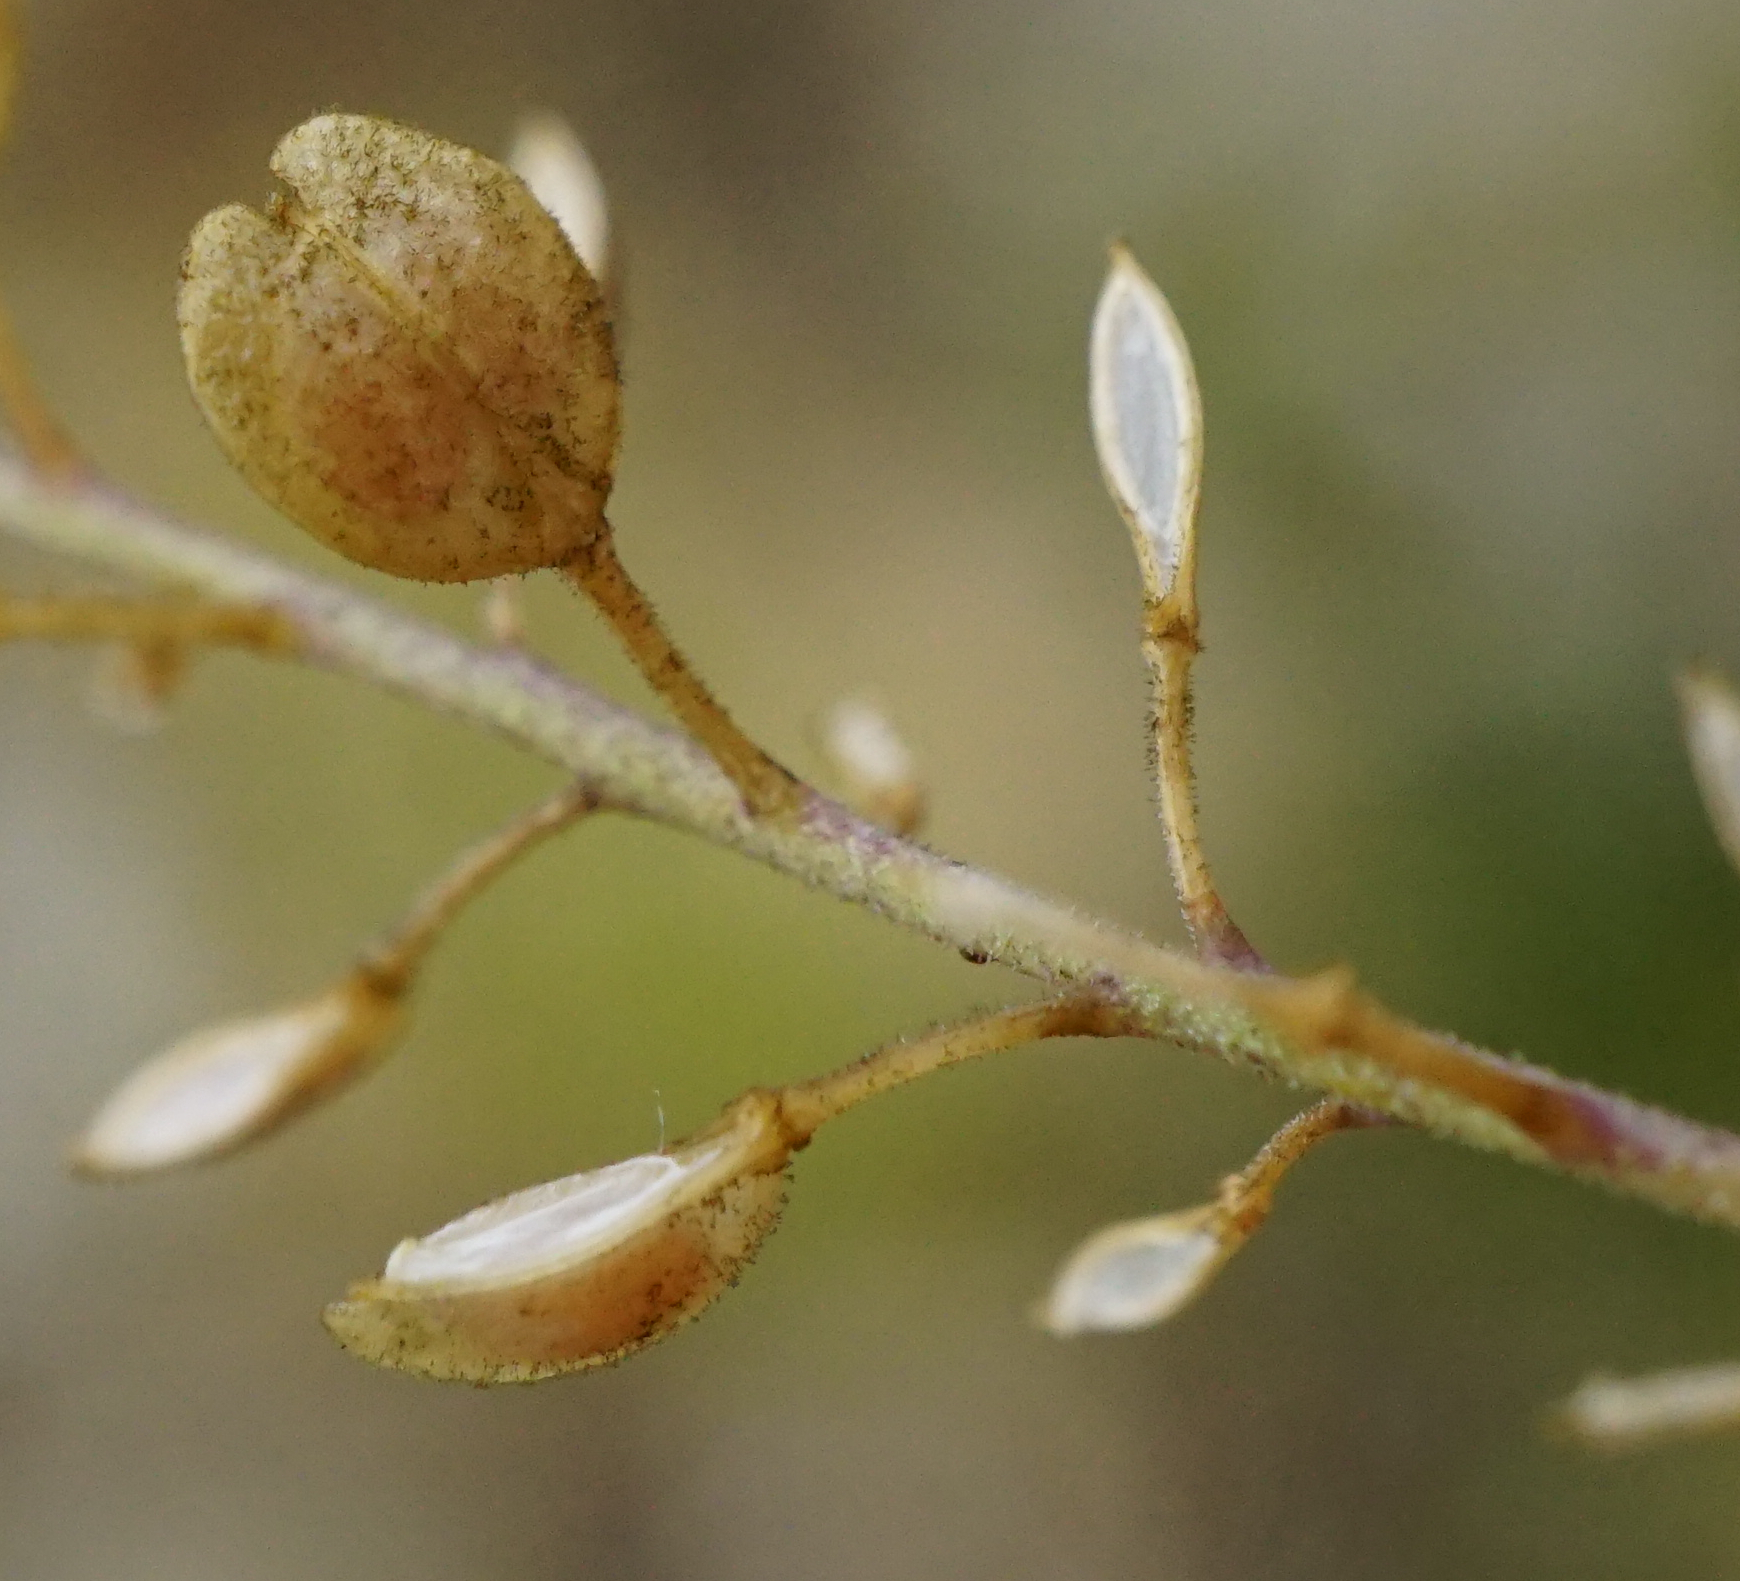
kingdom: Plantae
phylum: Tracheophyta
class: Magnoliopsida
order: Brassicales
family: Brassicaceae
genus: Lepidium
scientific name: Lepidium densiflorum
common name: Miner's pepperwort
